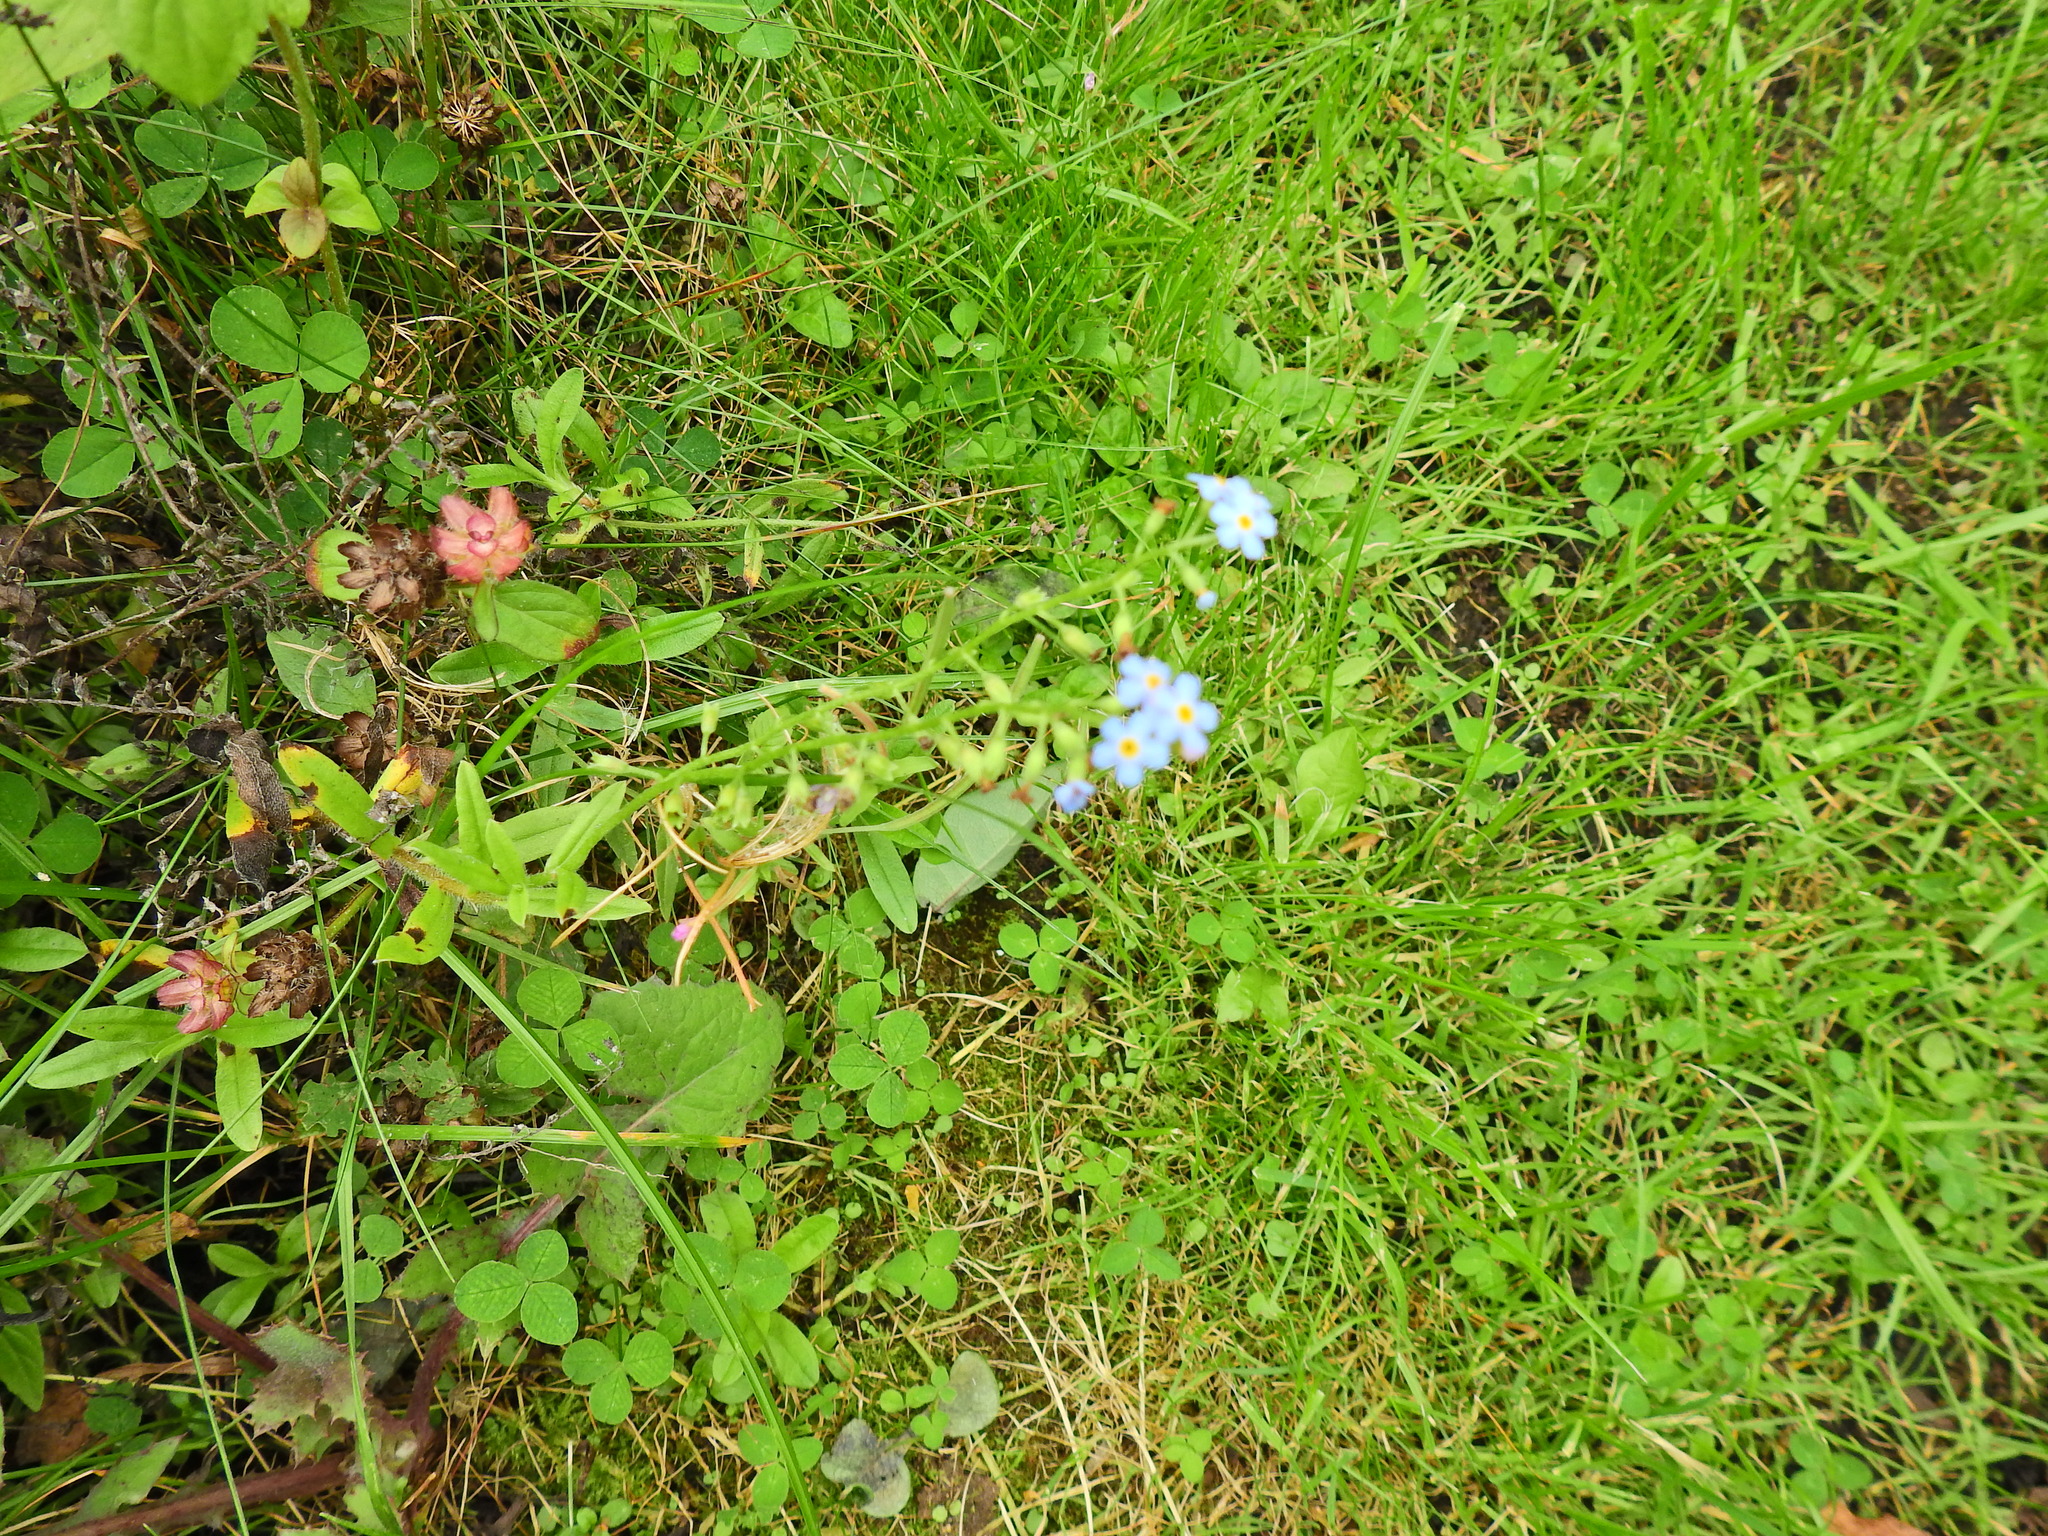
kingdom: Plantae
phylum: Tracheophyta
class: Magnoliopsida
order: Boraginales
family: Boraginaceae
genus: Myosotis
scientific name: Myosotis scorpioides
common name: Water forget-me-not
